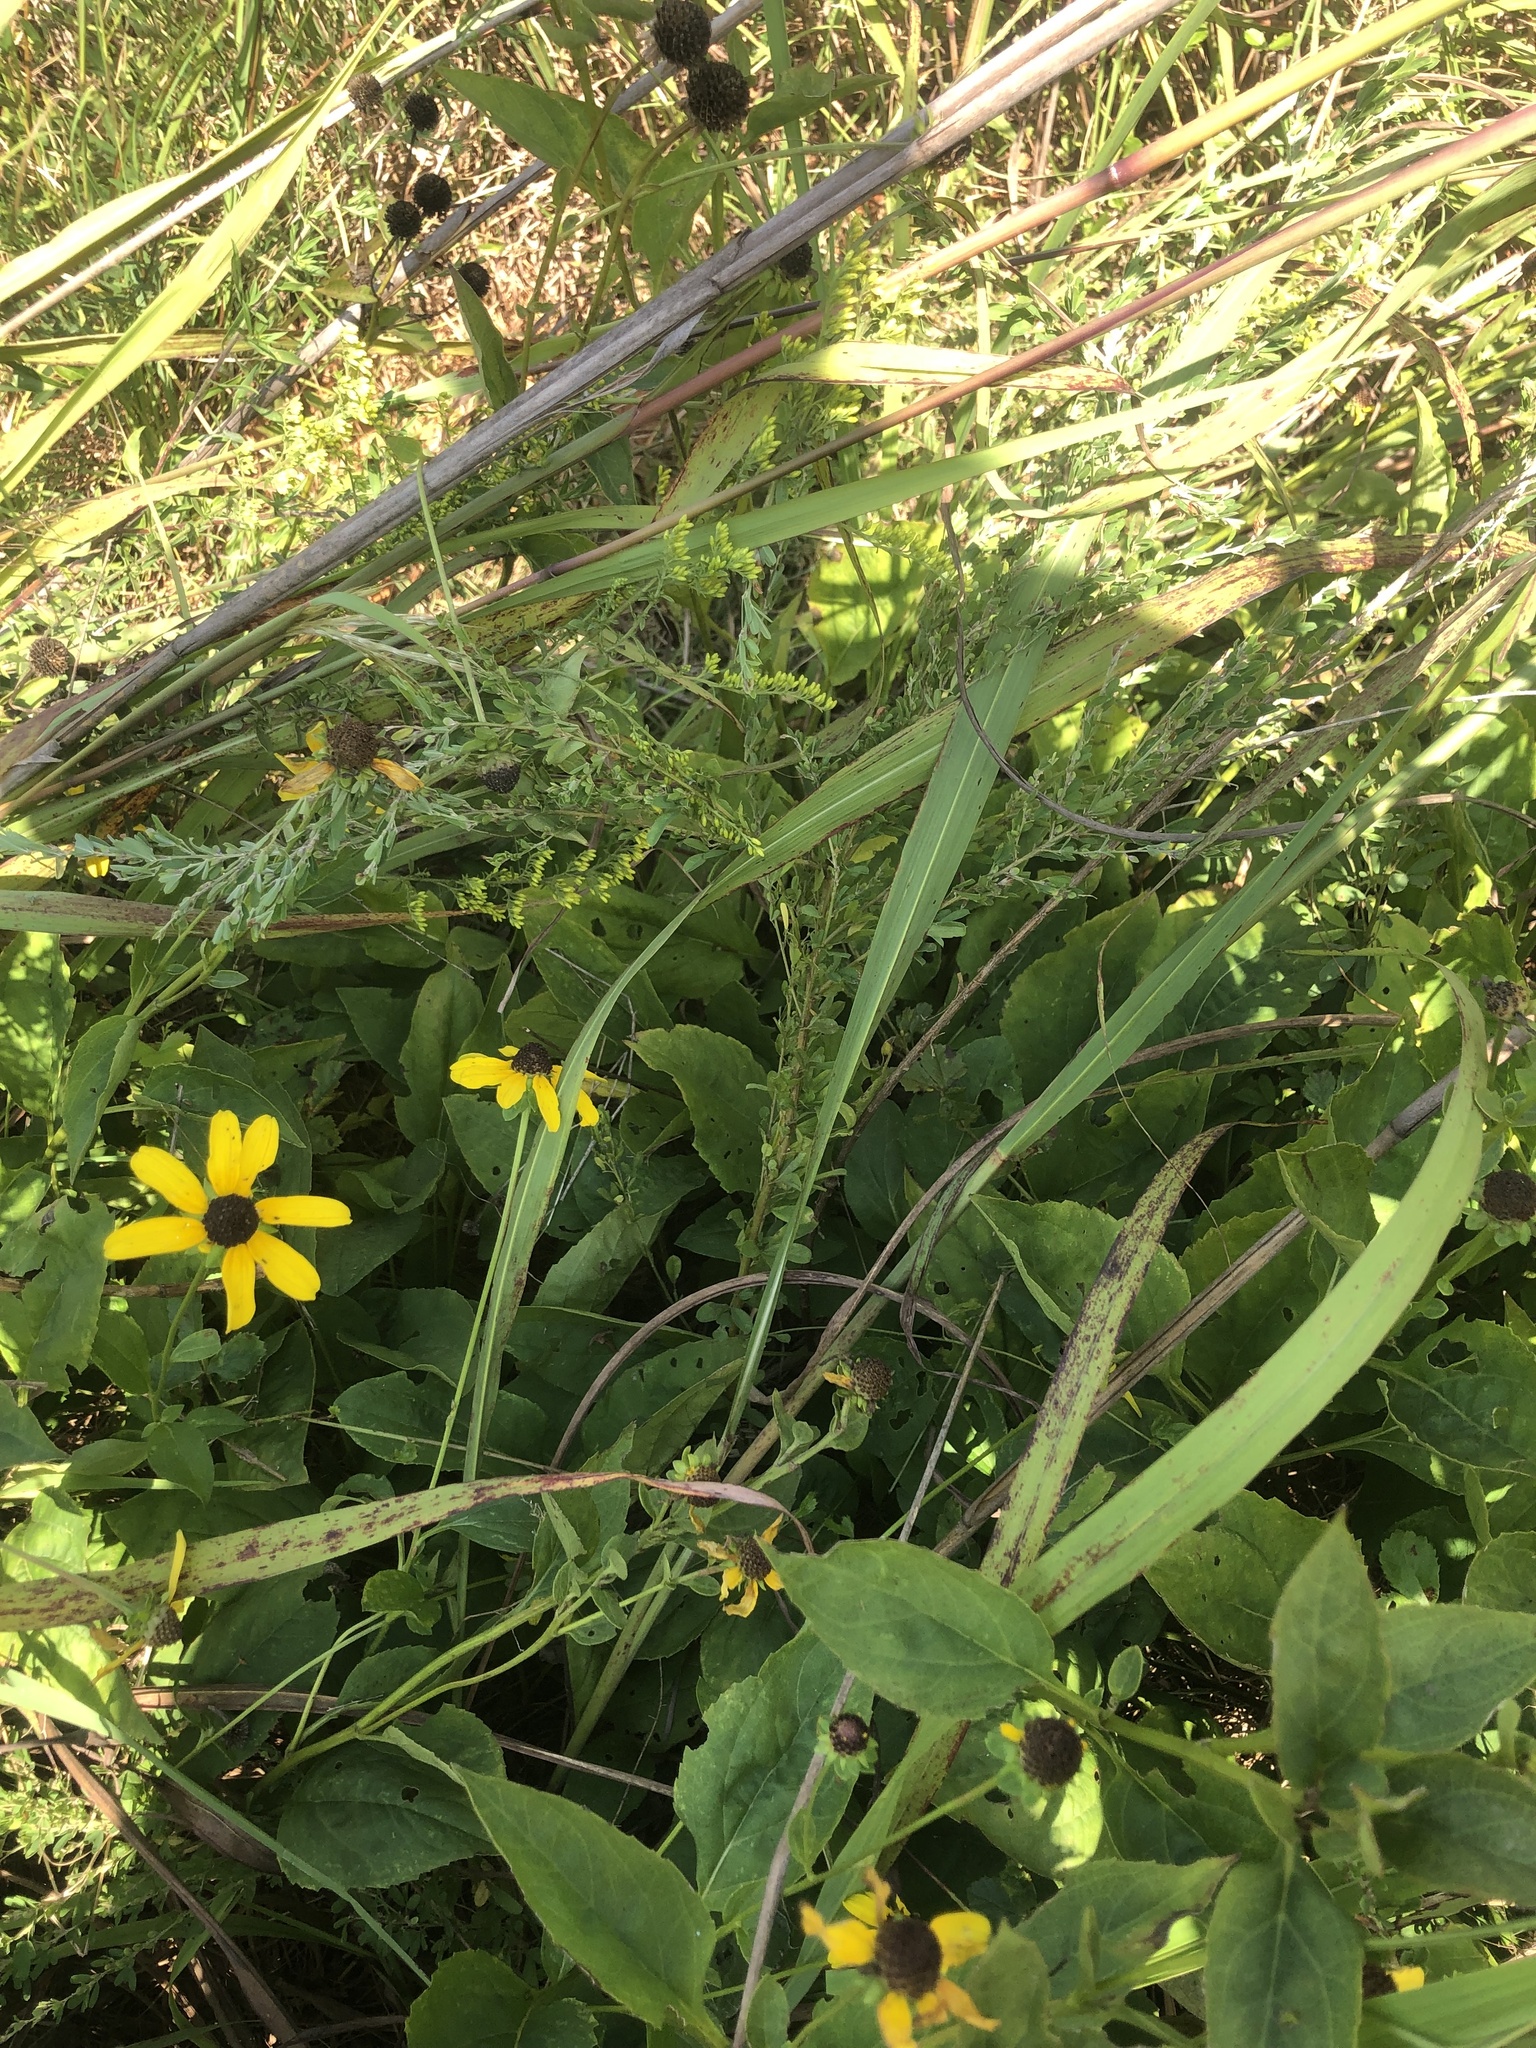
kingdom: Plantae
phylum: Tracheophyta
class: Magnoliopsida
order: Asterales
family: Asteraceae
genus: Rudbeckia
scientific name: Rudbeckia heliopsidis
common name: Little river black-eyed-susan
